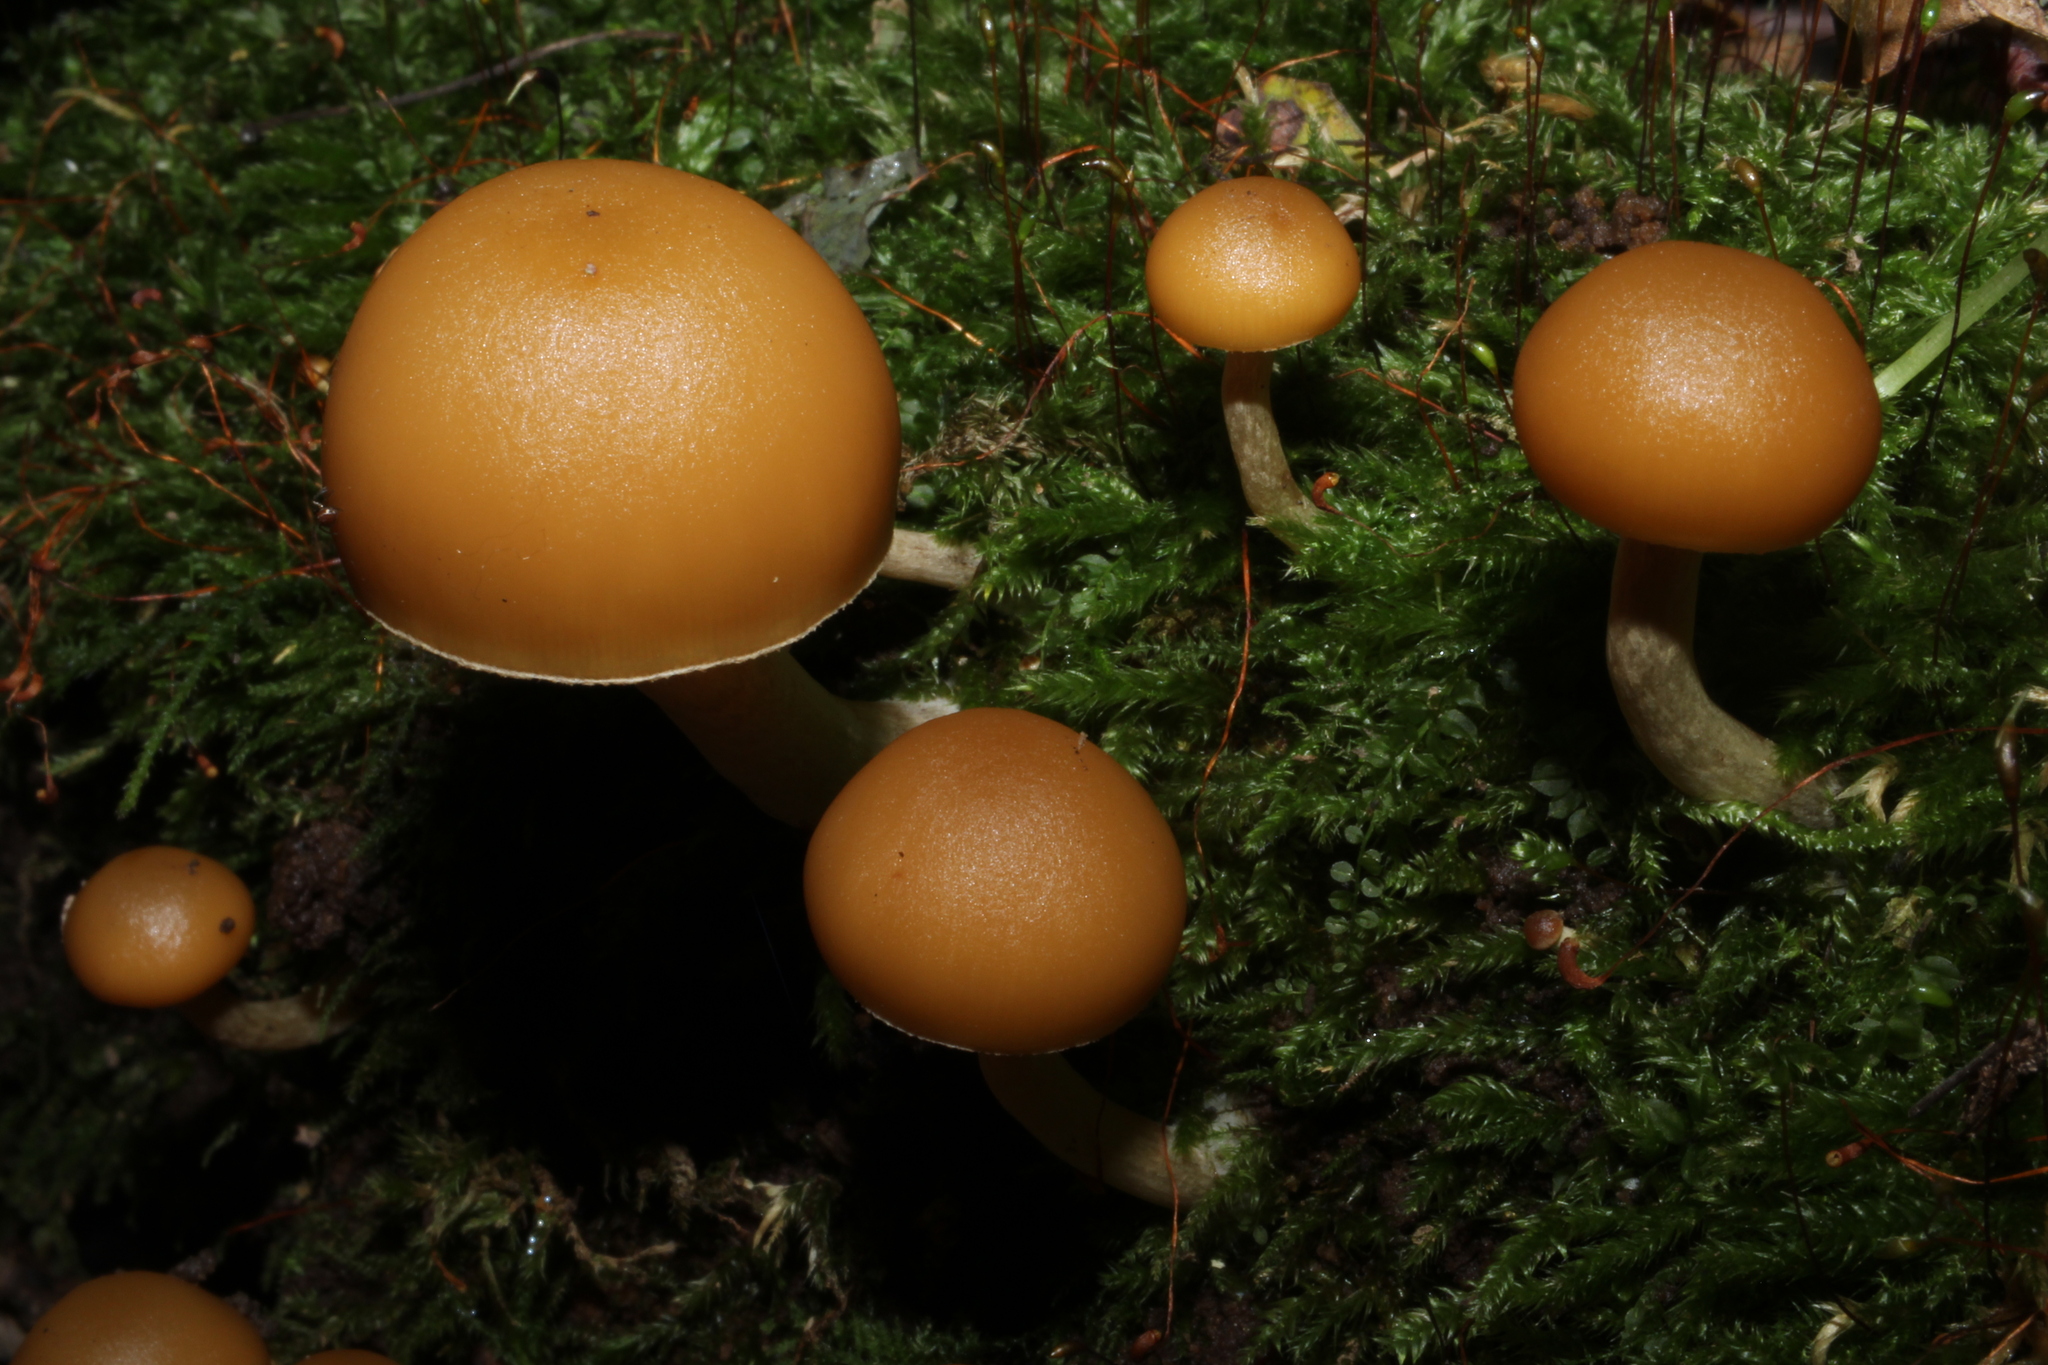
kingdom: Fungi
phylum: Basidiomycota
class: Agaricomycetes
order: Agaricales
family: Hymenogastraceae
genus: Galerina
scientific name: Galerina marginata
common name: Funeral bell
